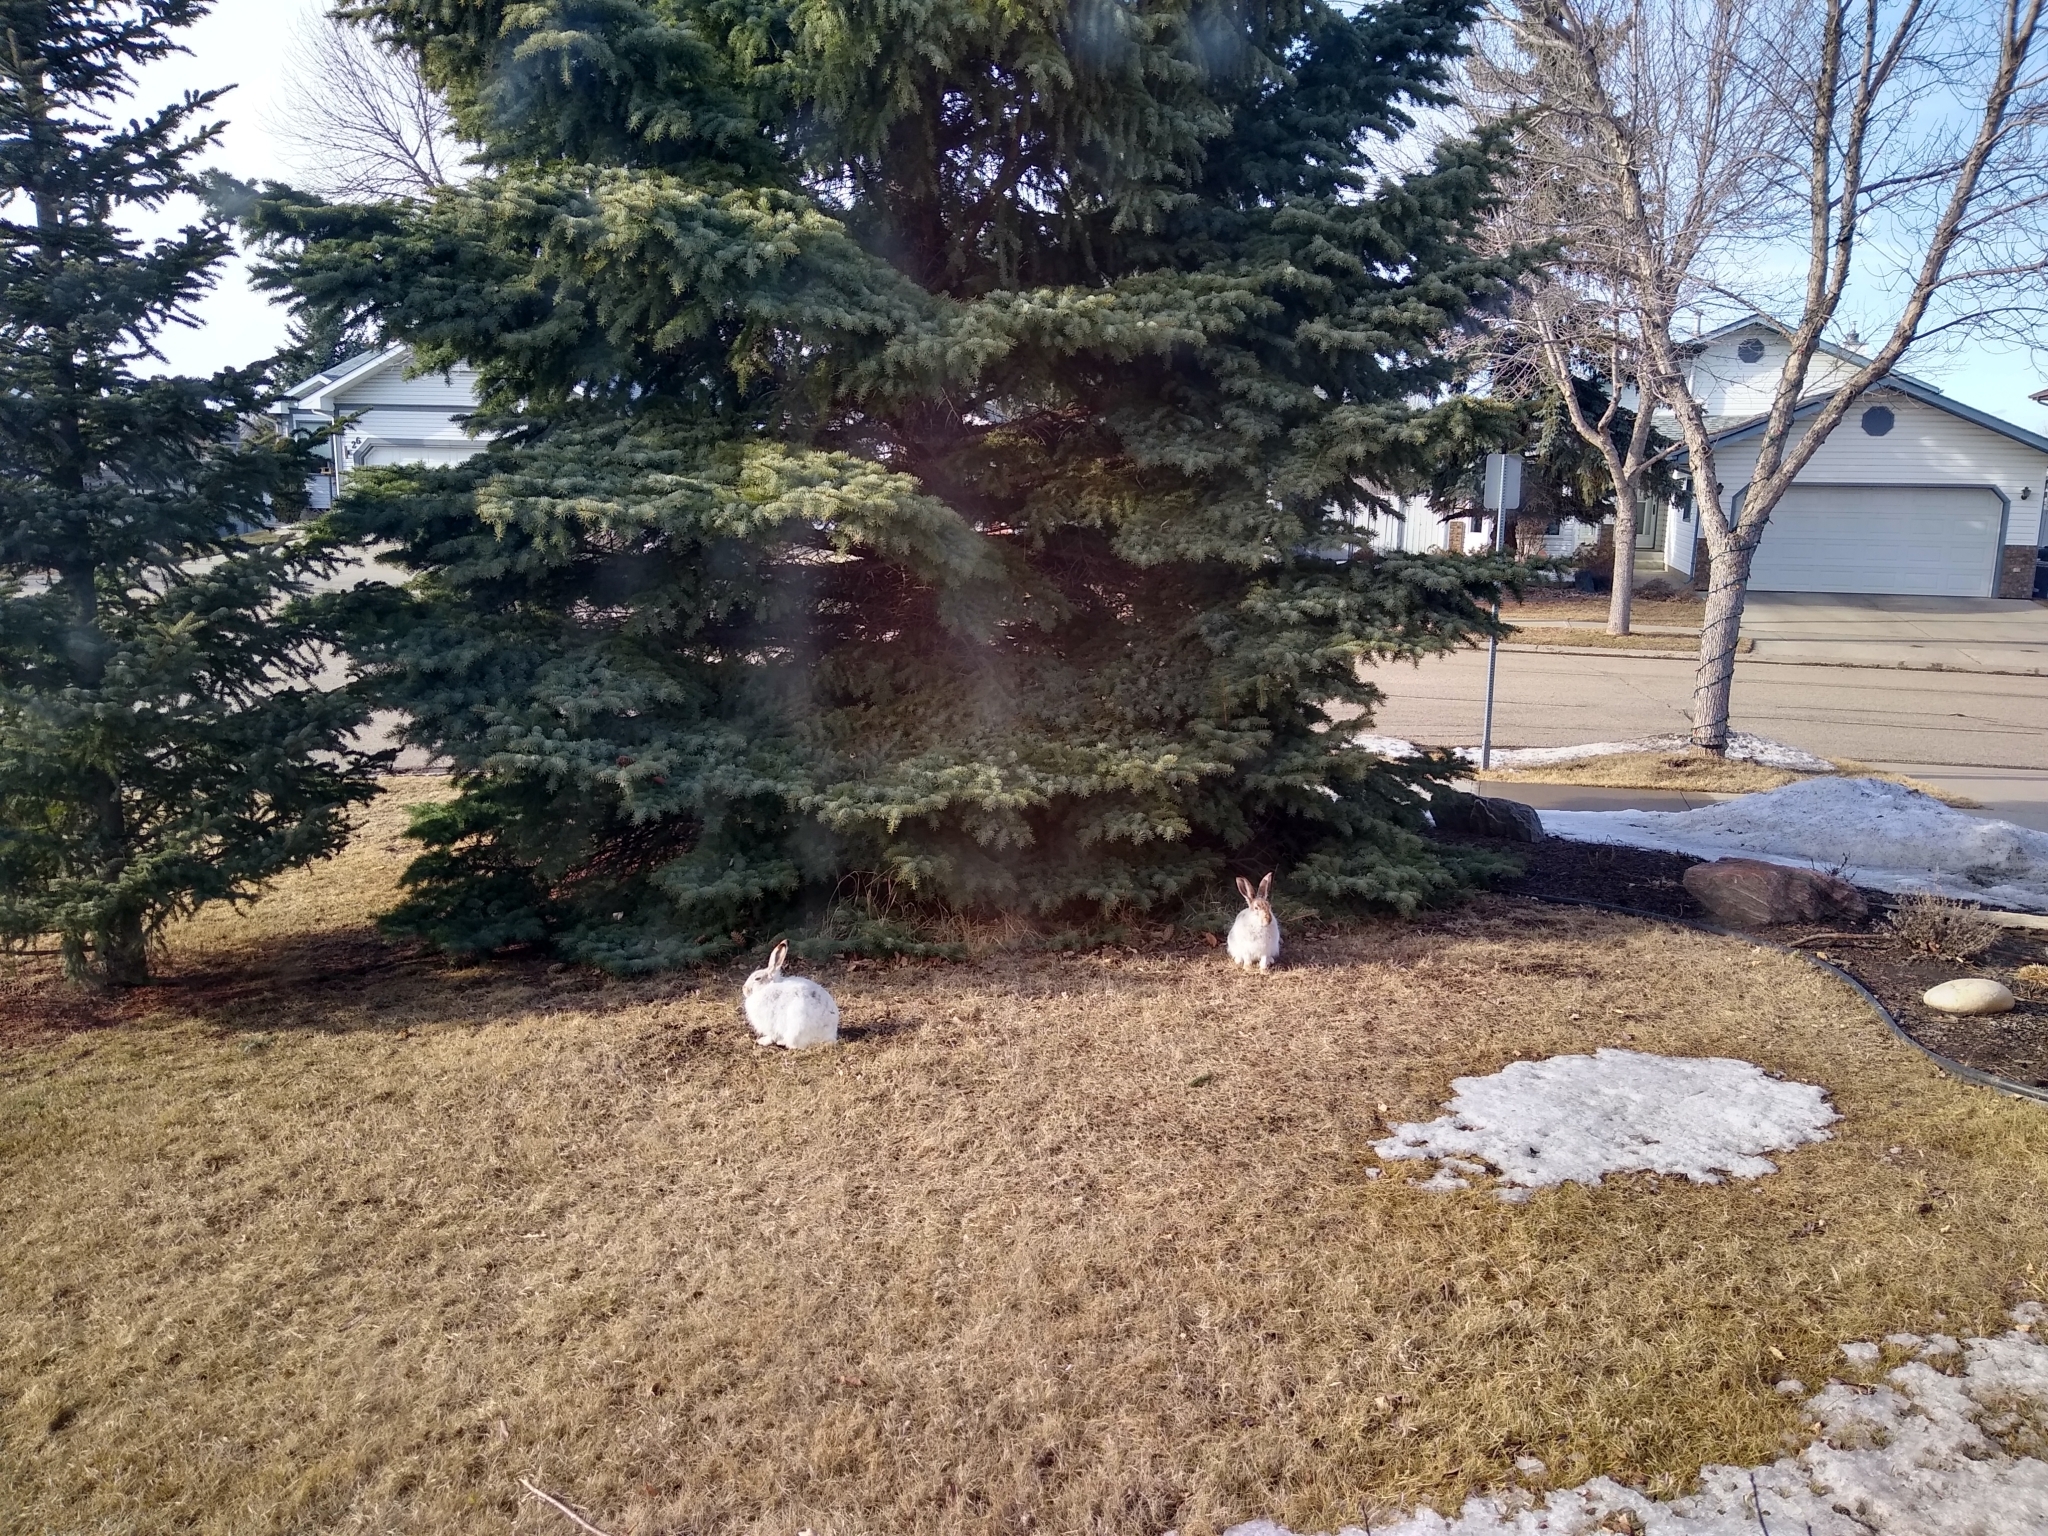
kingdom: Animalia
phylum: Chordata
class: Mammalia
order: Lagomorpha
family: Leporidae
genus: Lepus
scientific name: Lepus townsendii
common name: White-tailed jackrabbit
